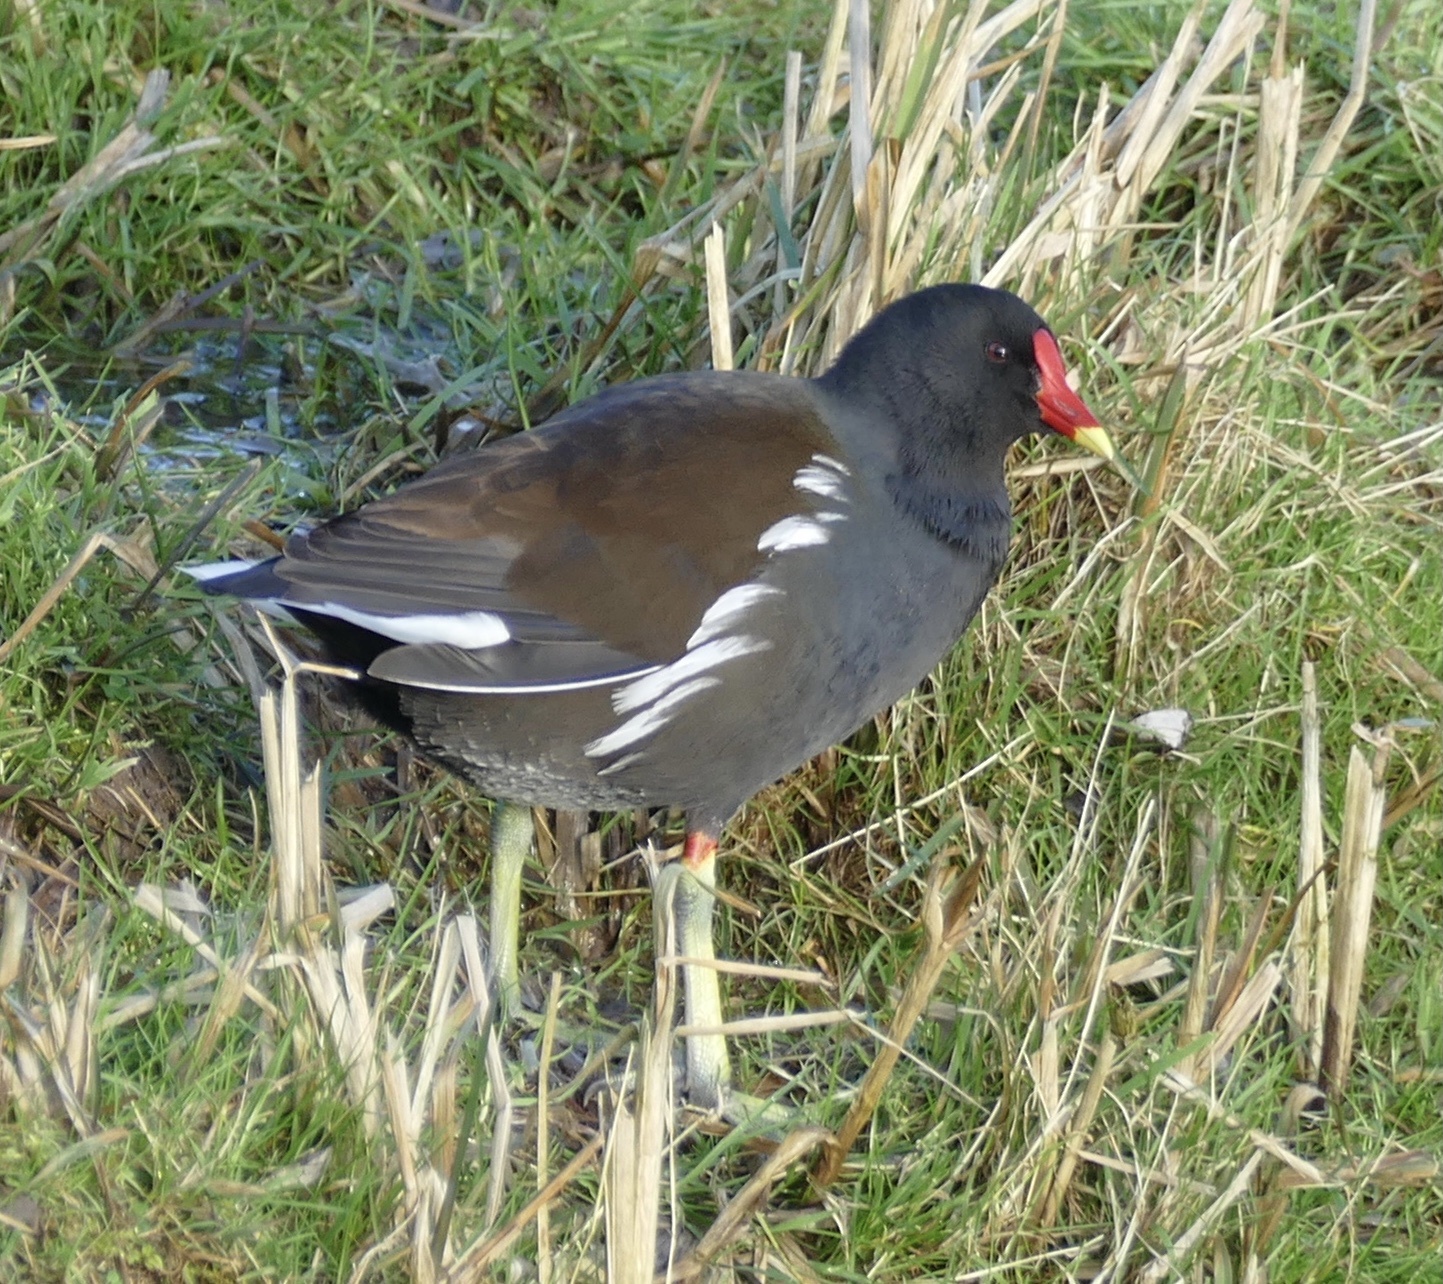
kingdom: Animalia
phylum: Chordata
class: Aves
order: Gruiformes
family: Rallidae
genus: Gallinula
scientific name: Gallinula chloropus
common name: Common moorhen
